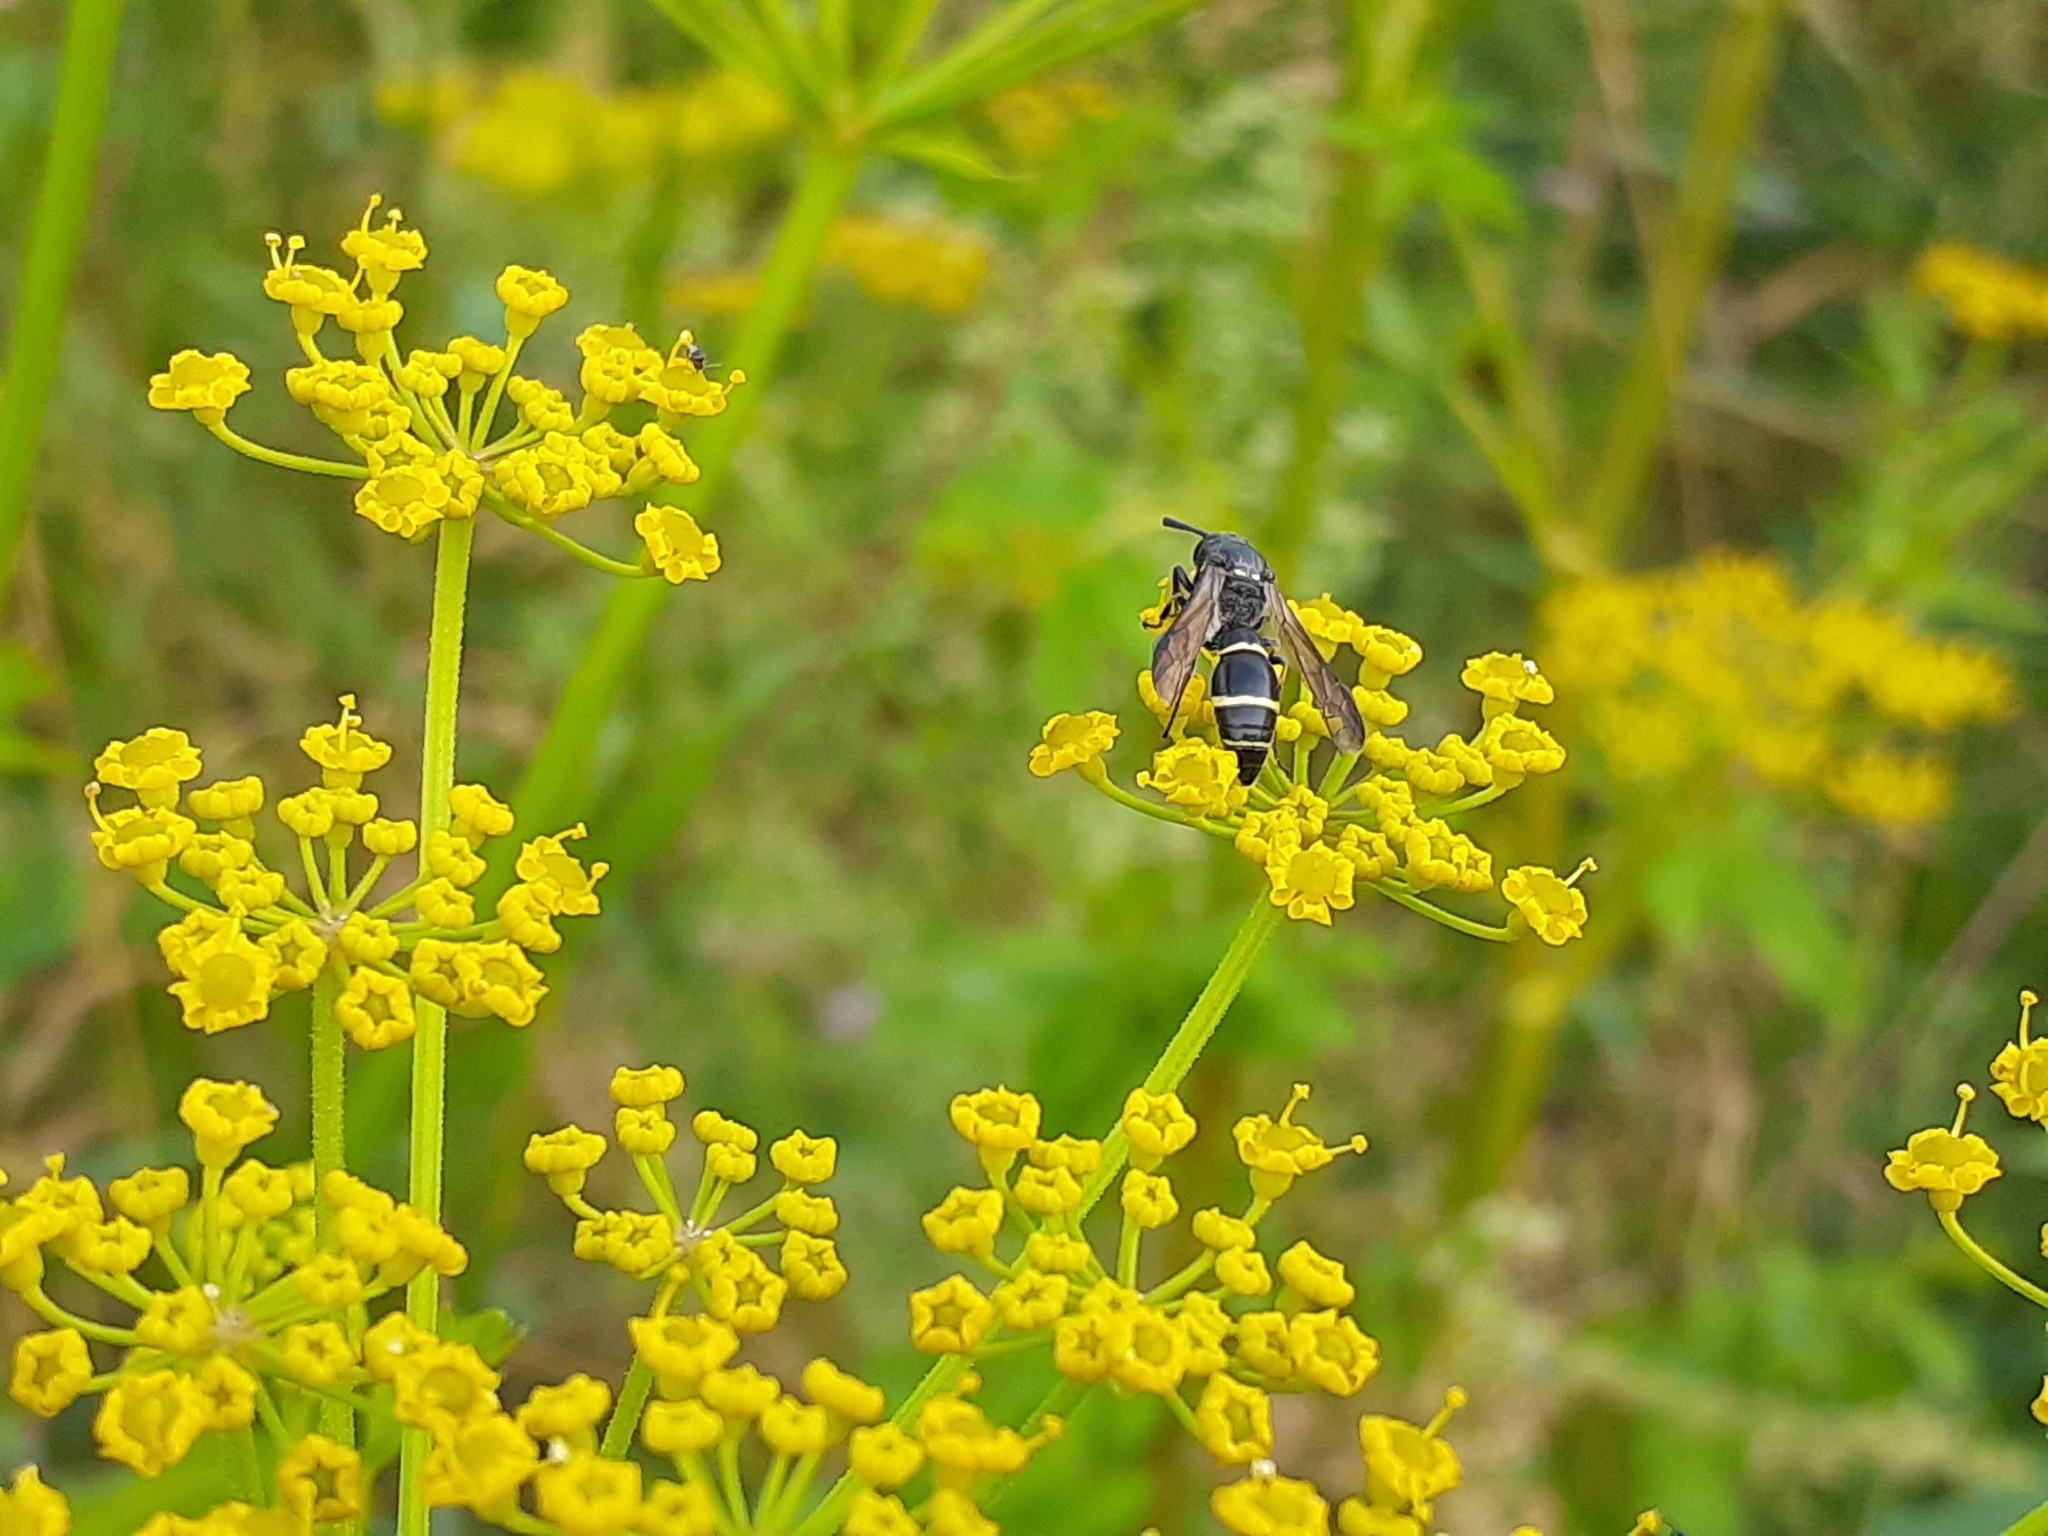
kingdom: Animalia
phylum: Arthropoda
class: Insecta
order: Hymenoptera
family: Eumenidae
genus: Symmorphus
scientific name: Symmorphus cristatus
